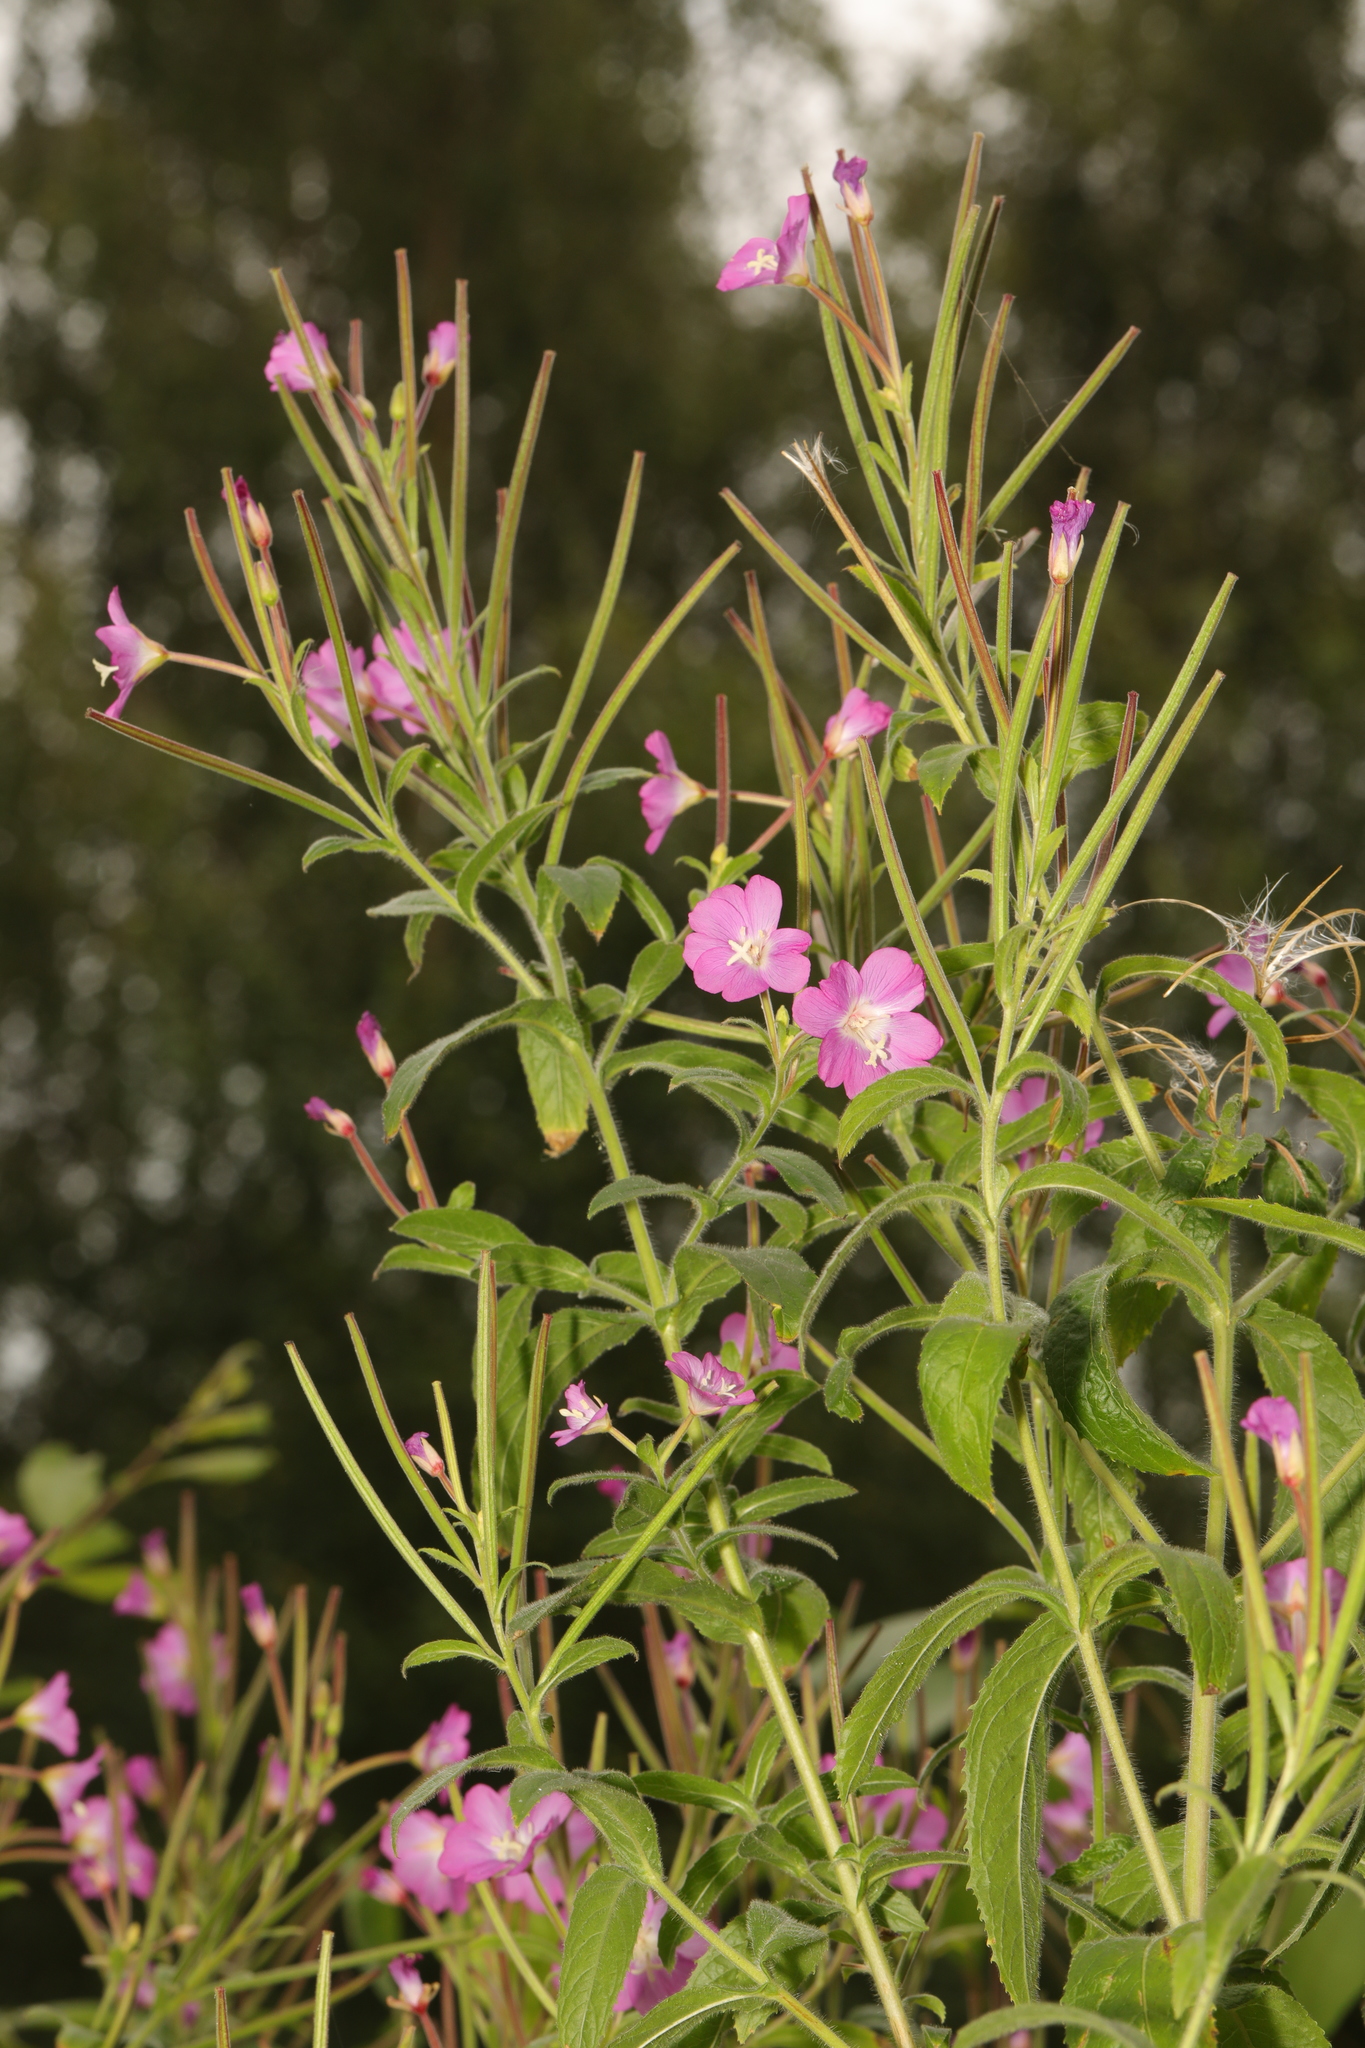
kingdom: Plantae
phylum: Tracheophyta
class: Magnoliopsida
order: Myrtales
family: Onagraceae
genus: Epilobium
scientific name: Epilobium hirsutum
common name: Great willowherb
